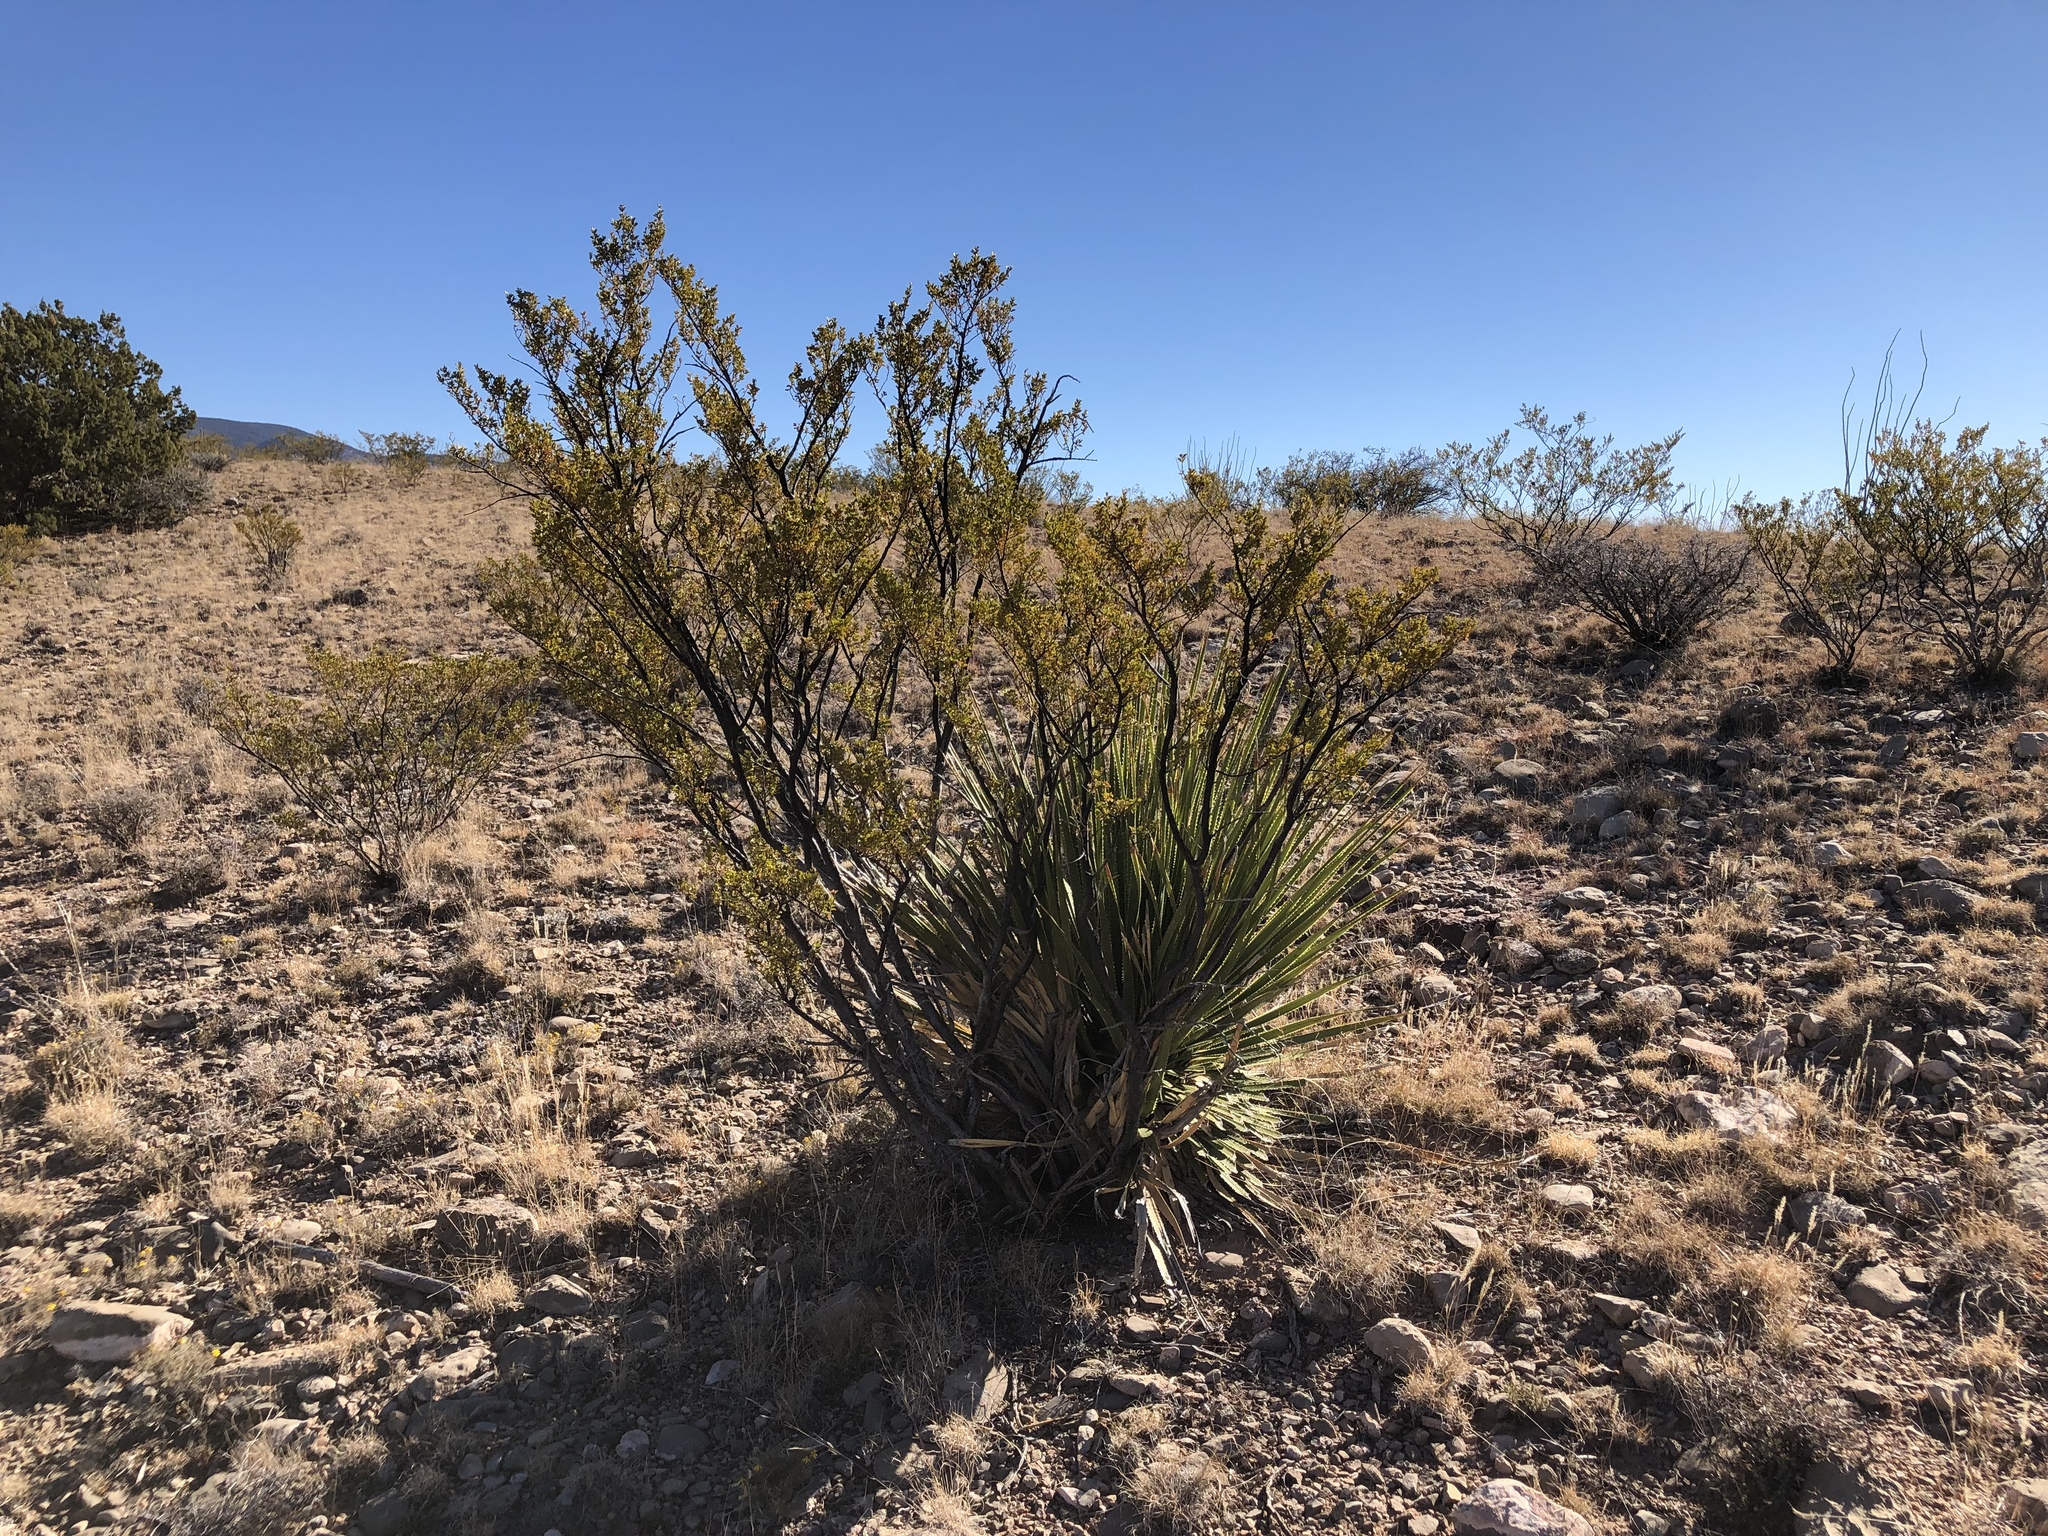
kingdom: Plantae
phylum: Tracheophyta
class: Magnoliopsida
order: Zygophyllales
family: Zygophyllaceae
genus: Larrea
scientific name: Larrea tridentata
